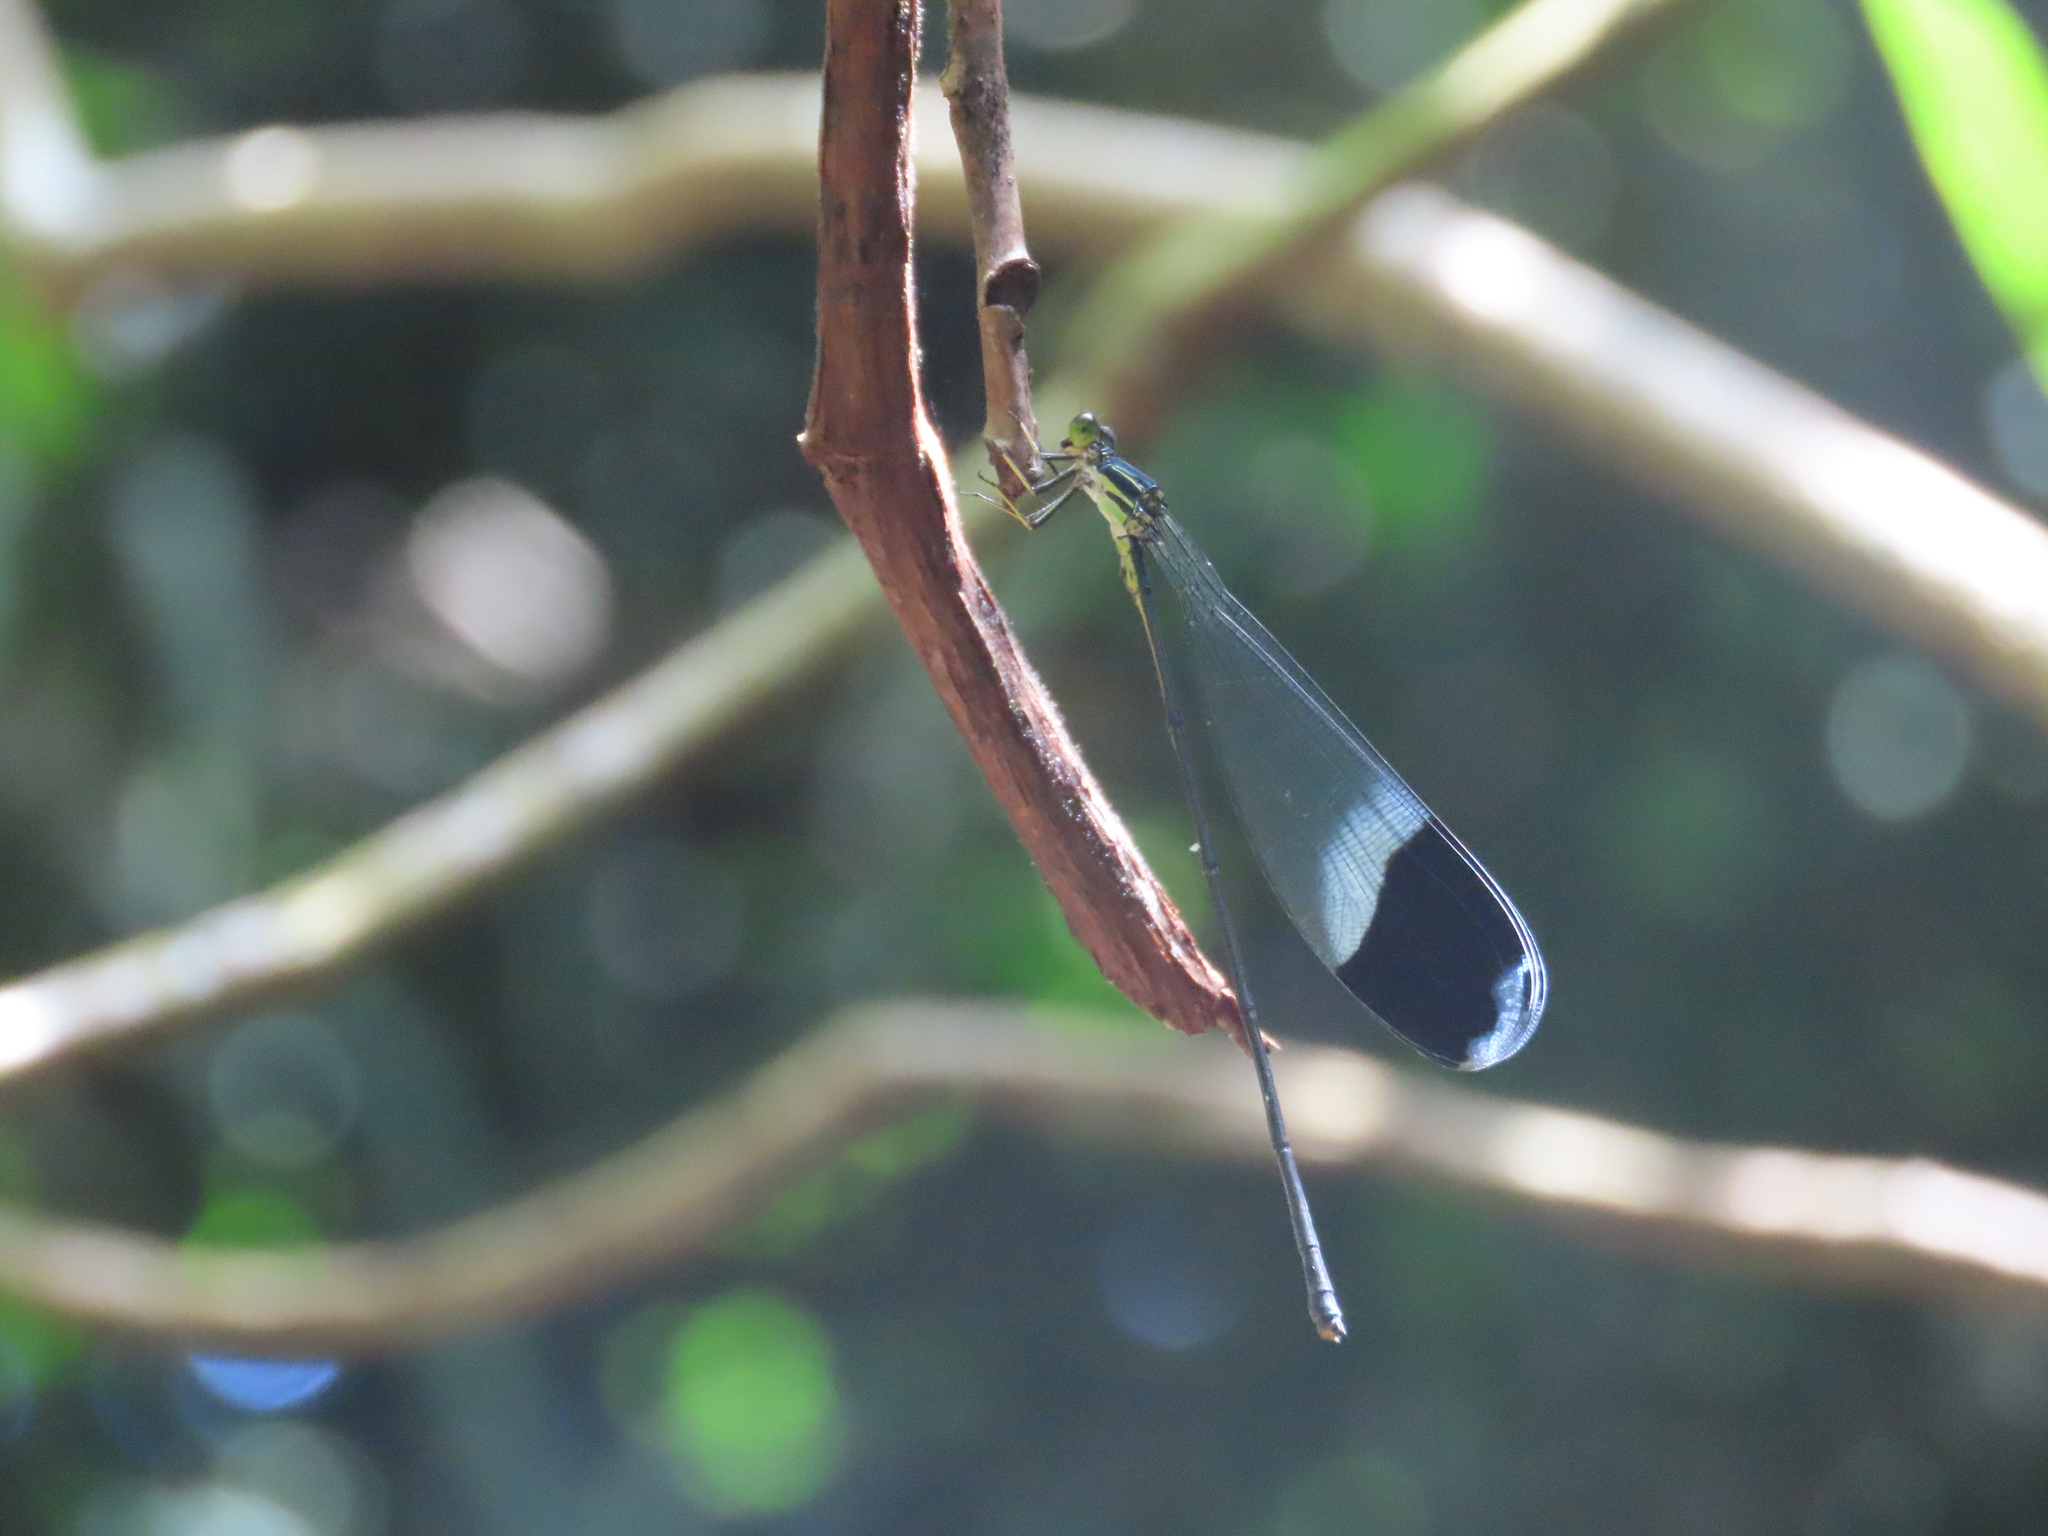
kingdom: Animalia
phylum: Arthropoda
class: Insecta
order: Odonata
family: Coenagrionidae
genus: Megaloprepus
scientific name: Megaloprepus caerulatus
